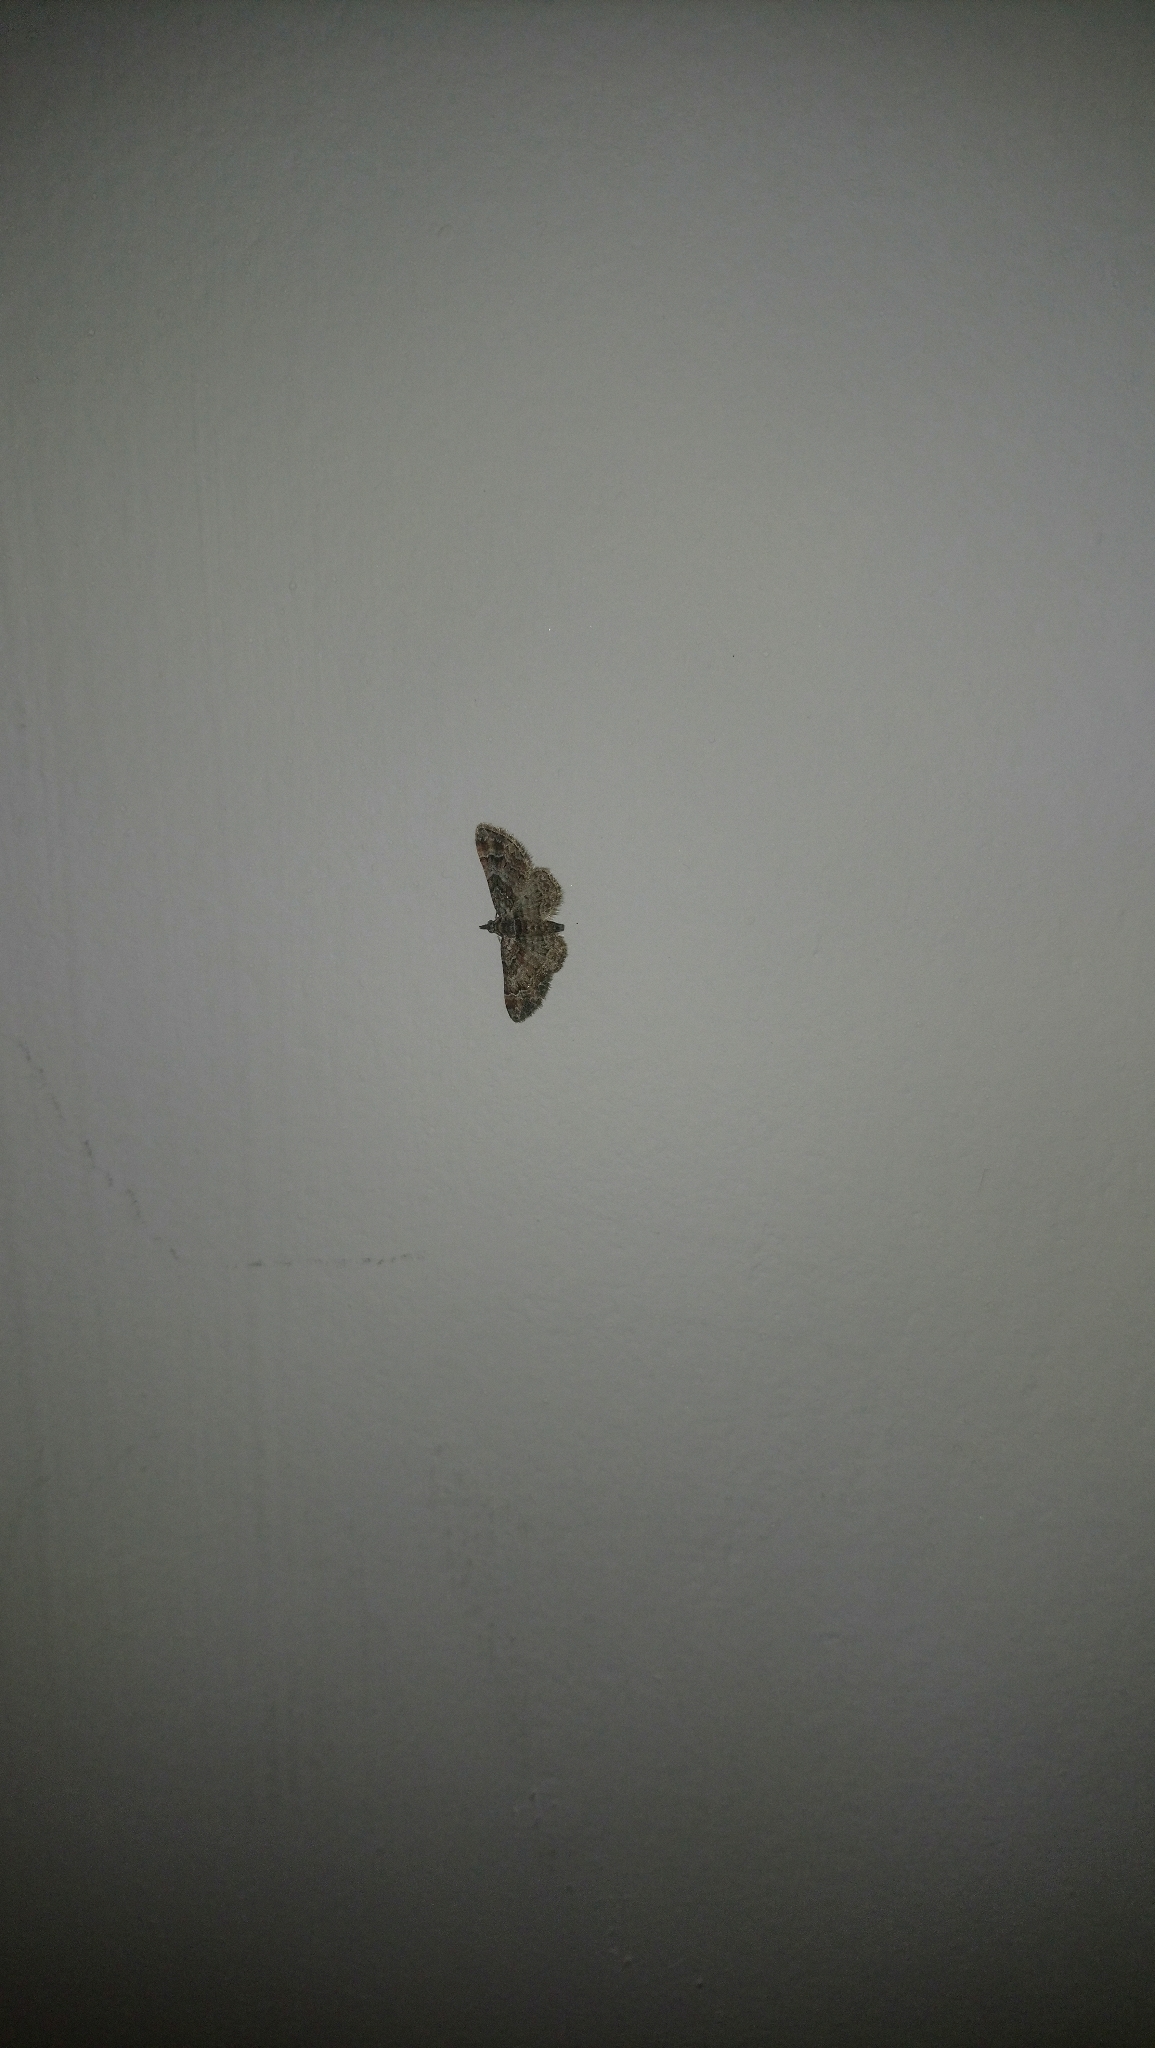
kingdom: Animalia
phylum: Arthropoda
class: Insecta
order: Lepidoptera
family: Geometridae
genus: Gymnoscelis
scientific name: Gymnoscelis rufifasciata
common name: Double-striped pug
